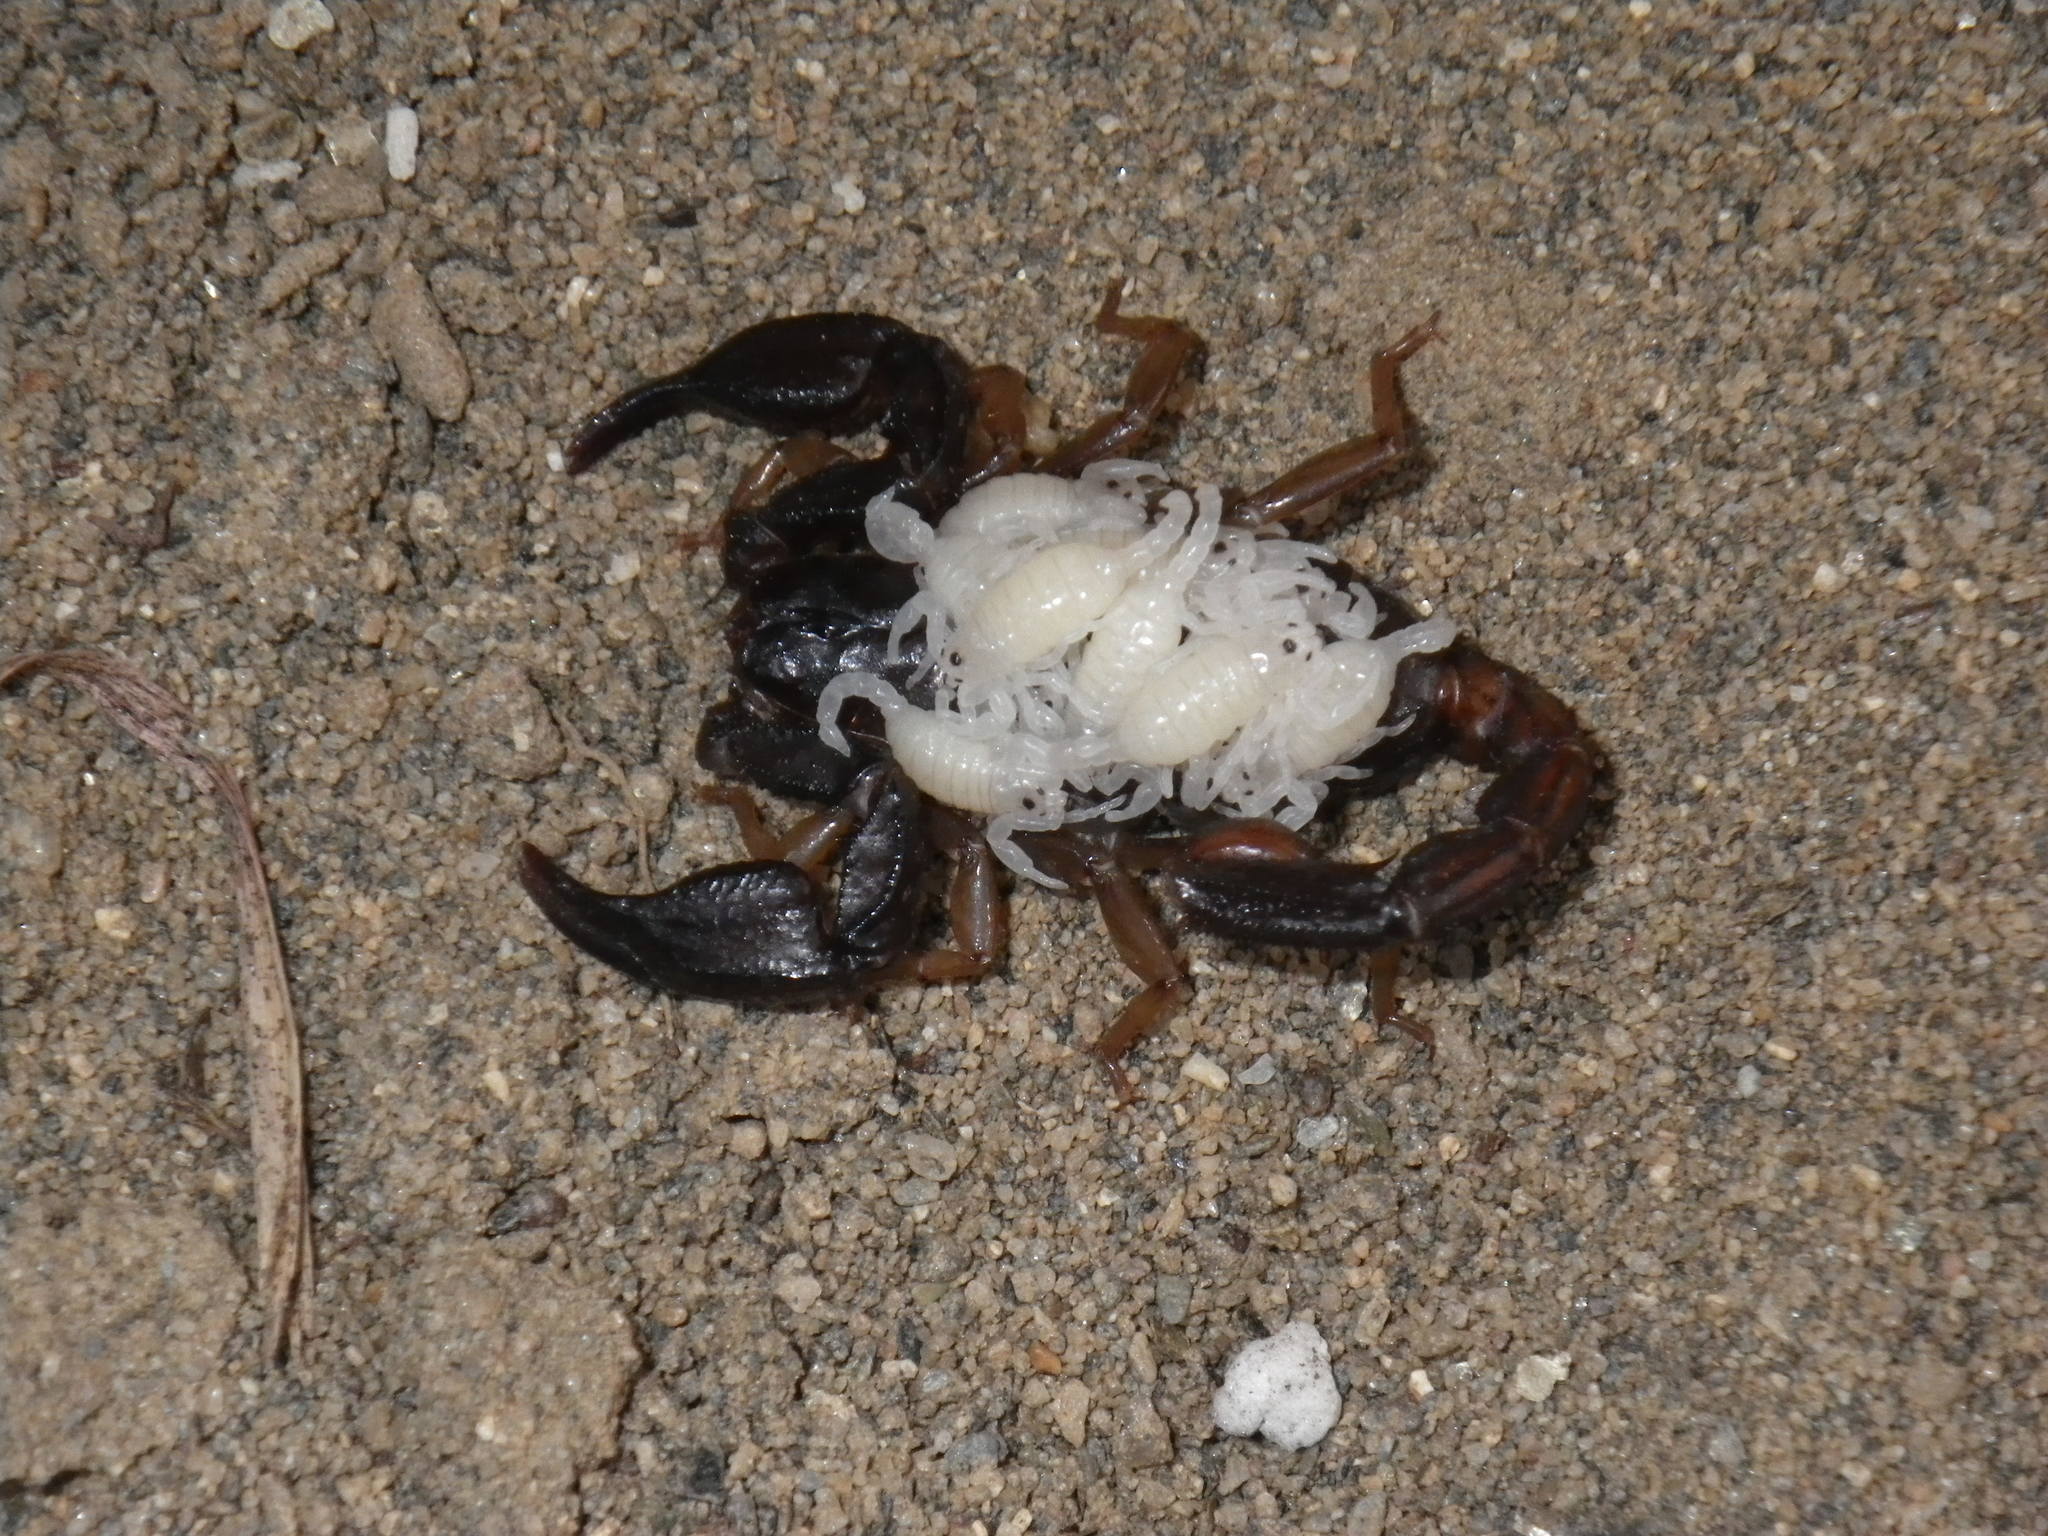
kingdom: Animalia
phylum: Arthropoda
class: Arachnida
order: Scorpiones
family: Chactidae
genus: Uroctonus
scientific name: Uroctonus mordax
